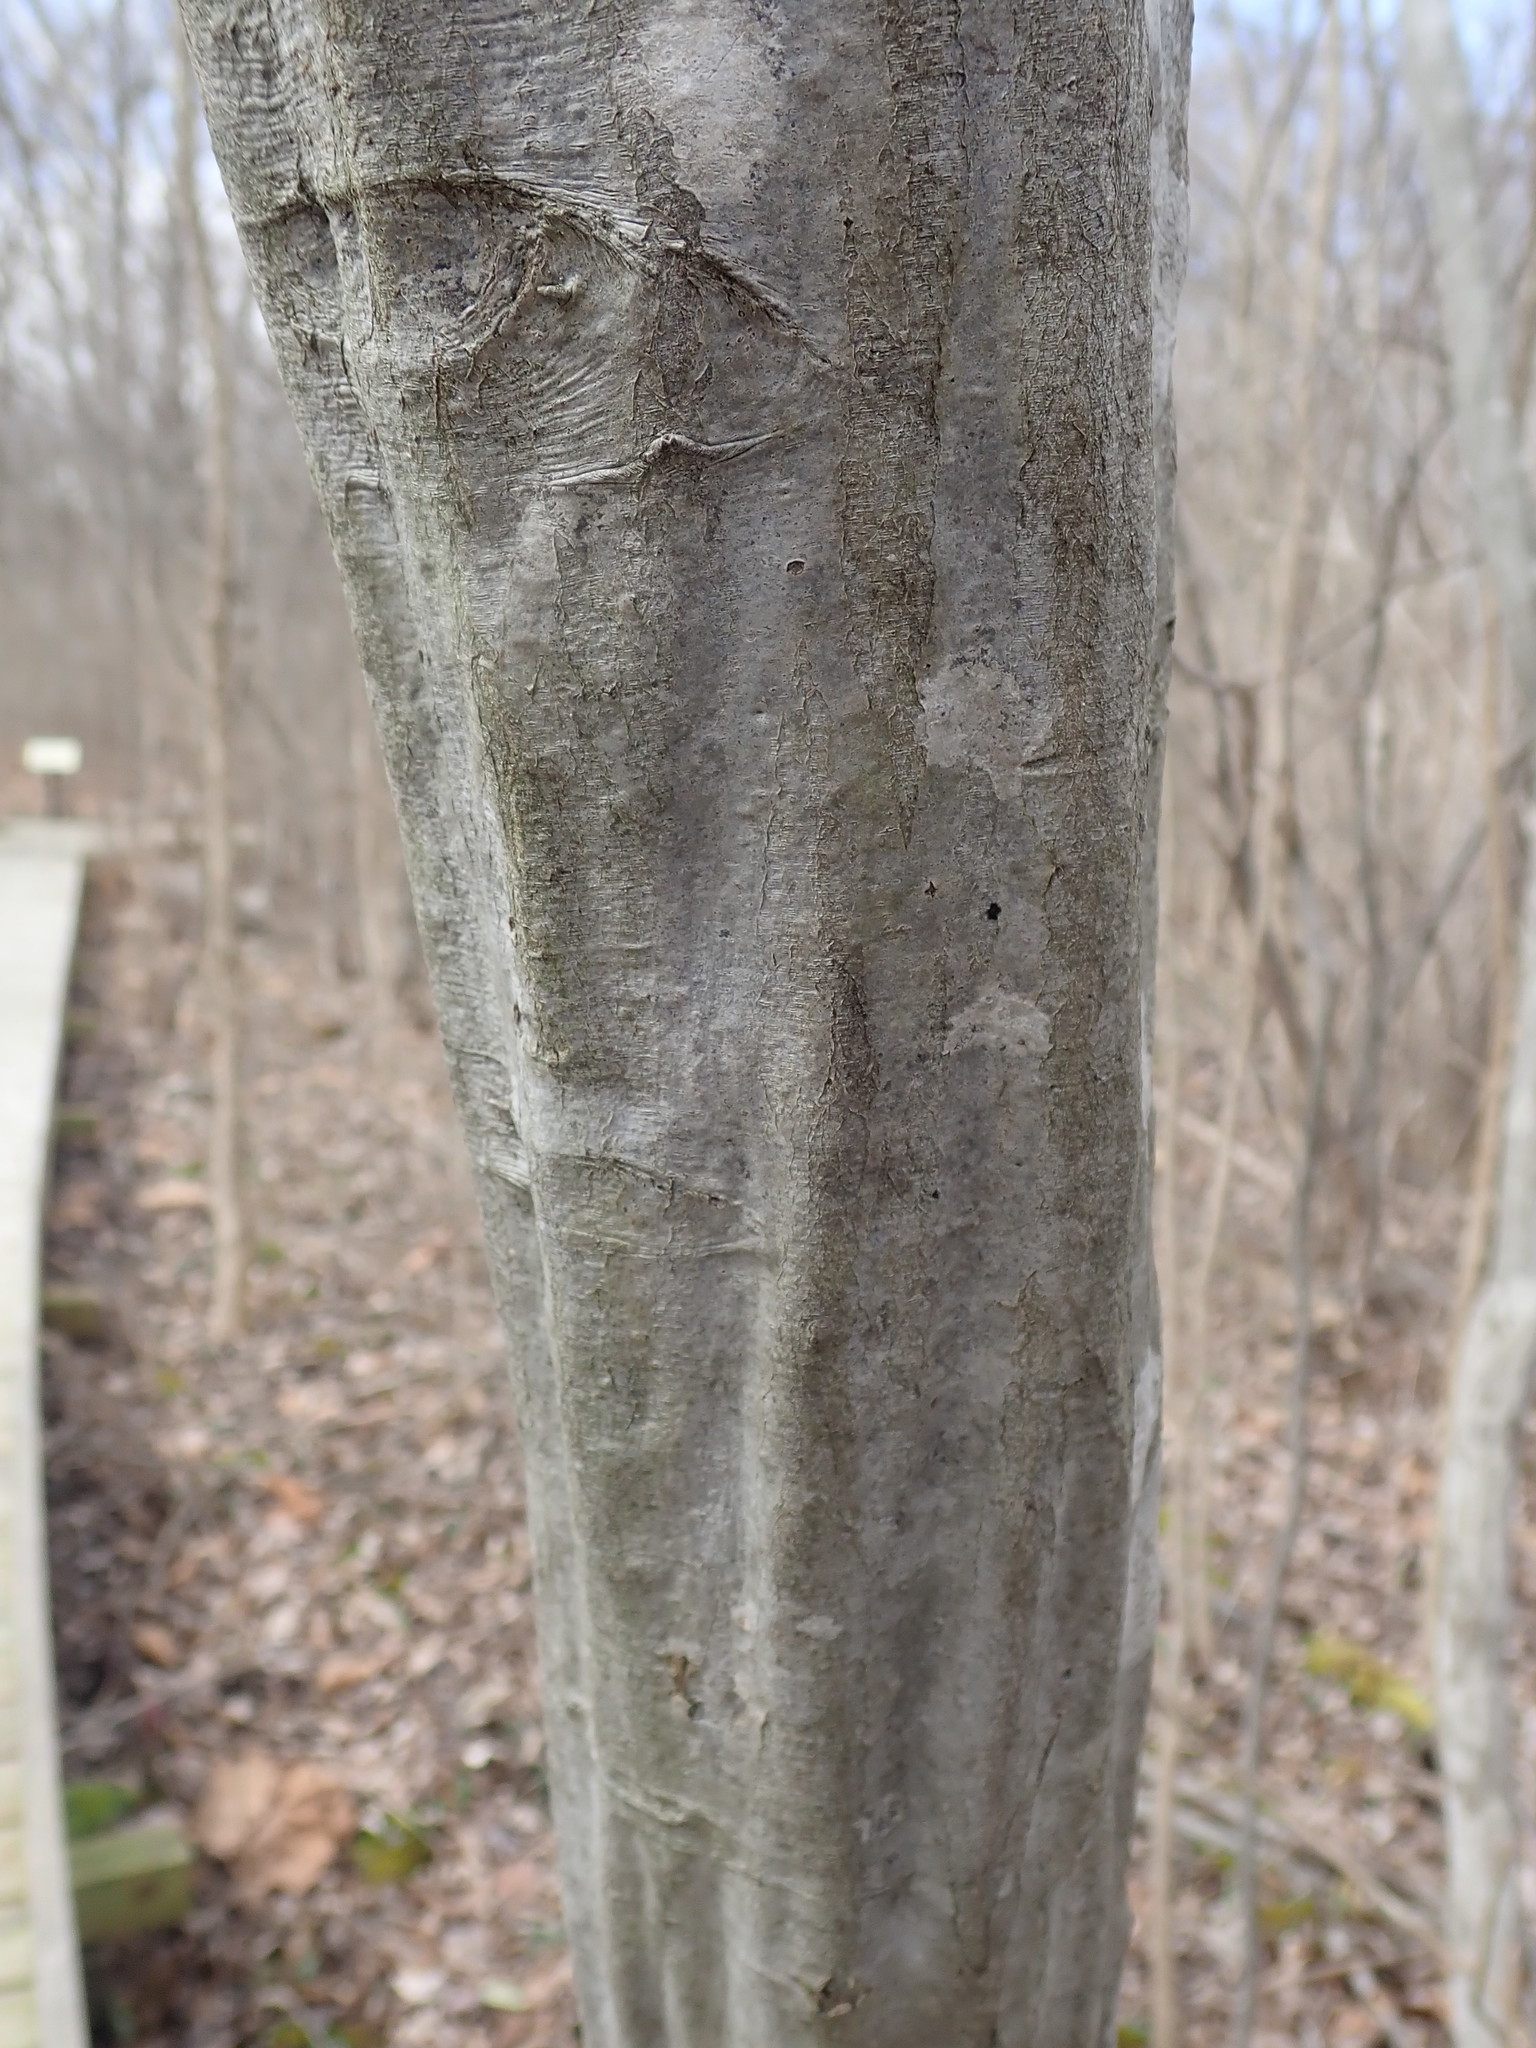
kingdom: Plantae
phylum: Tracheophyta
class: Magnoliopsida
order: Fagales
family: Betulaceae
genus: Carpinus
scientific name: Carpinus caroliniana
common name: American hornbeam
